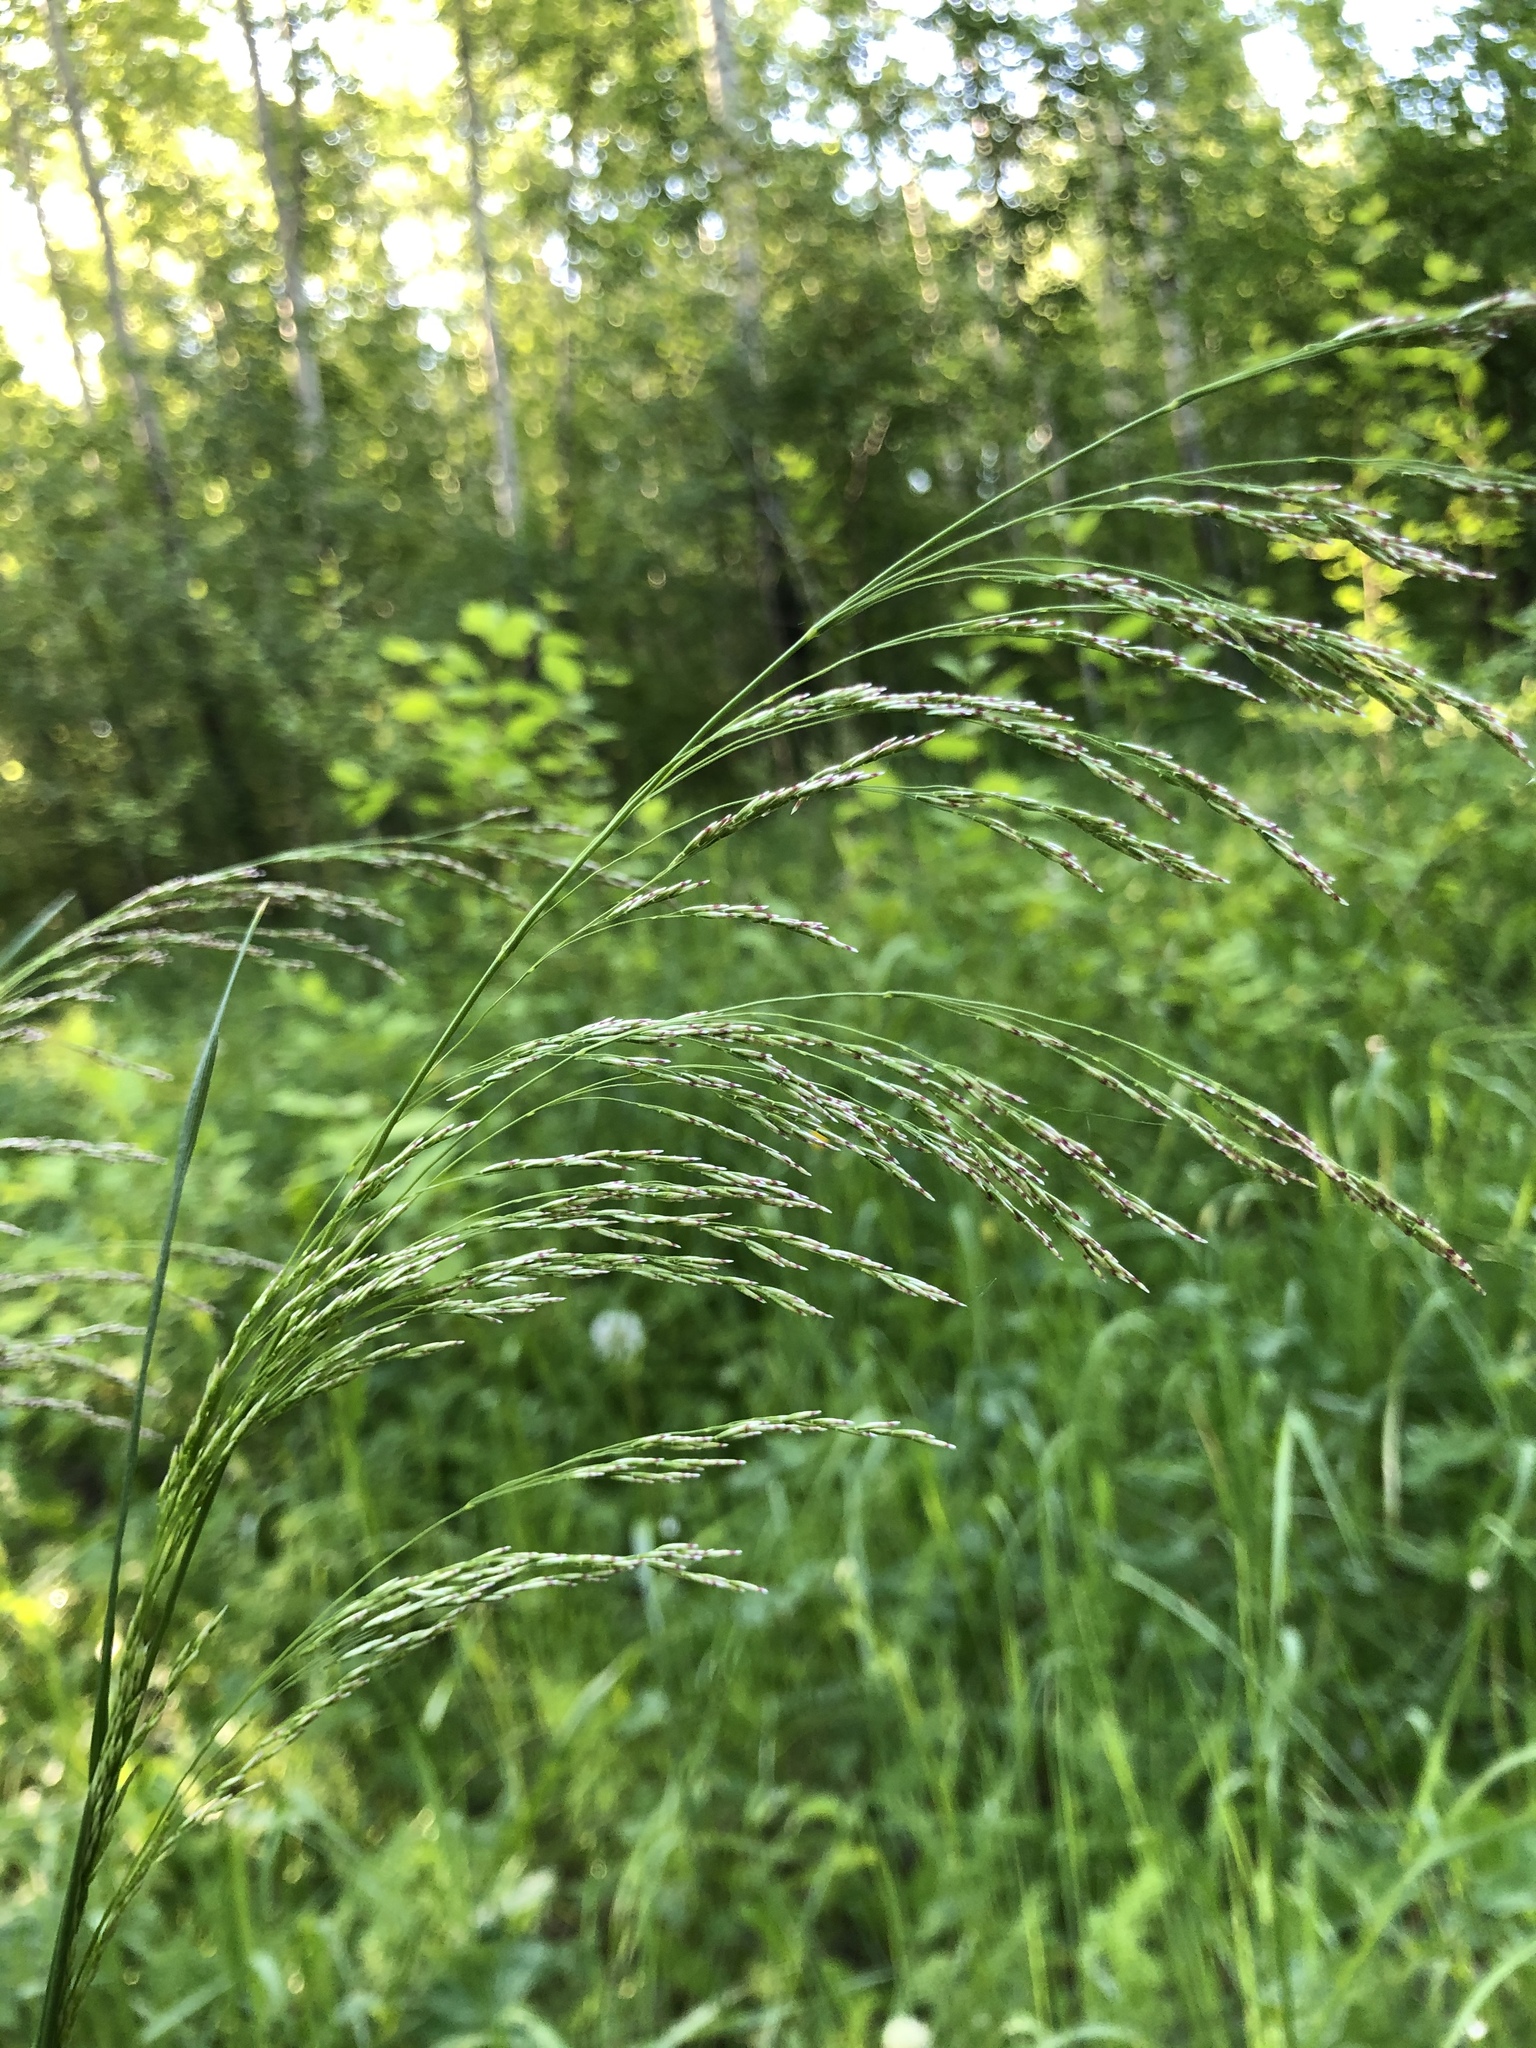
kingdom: Plantae
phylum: Tracheophyta
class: Liliopsida
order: Poales
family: Poaceae
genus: Deschampsia
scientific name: Deschampsia cespitosa
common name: Tufted hair-grass
